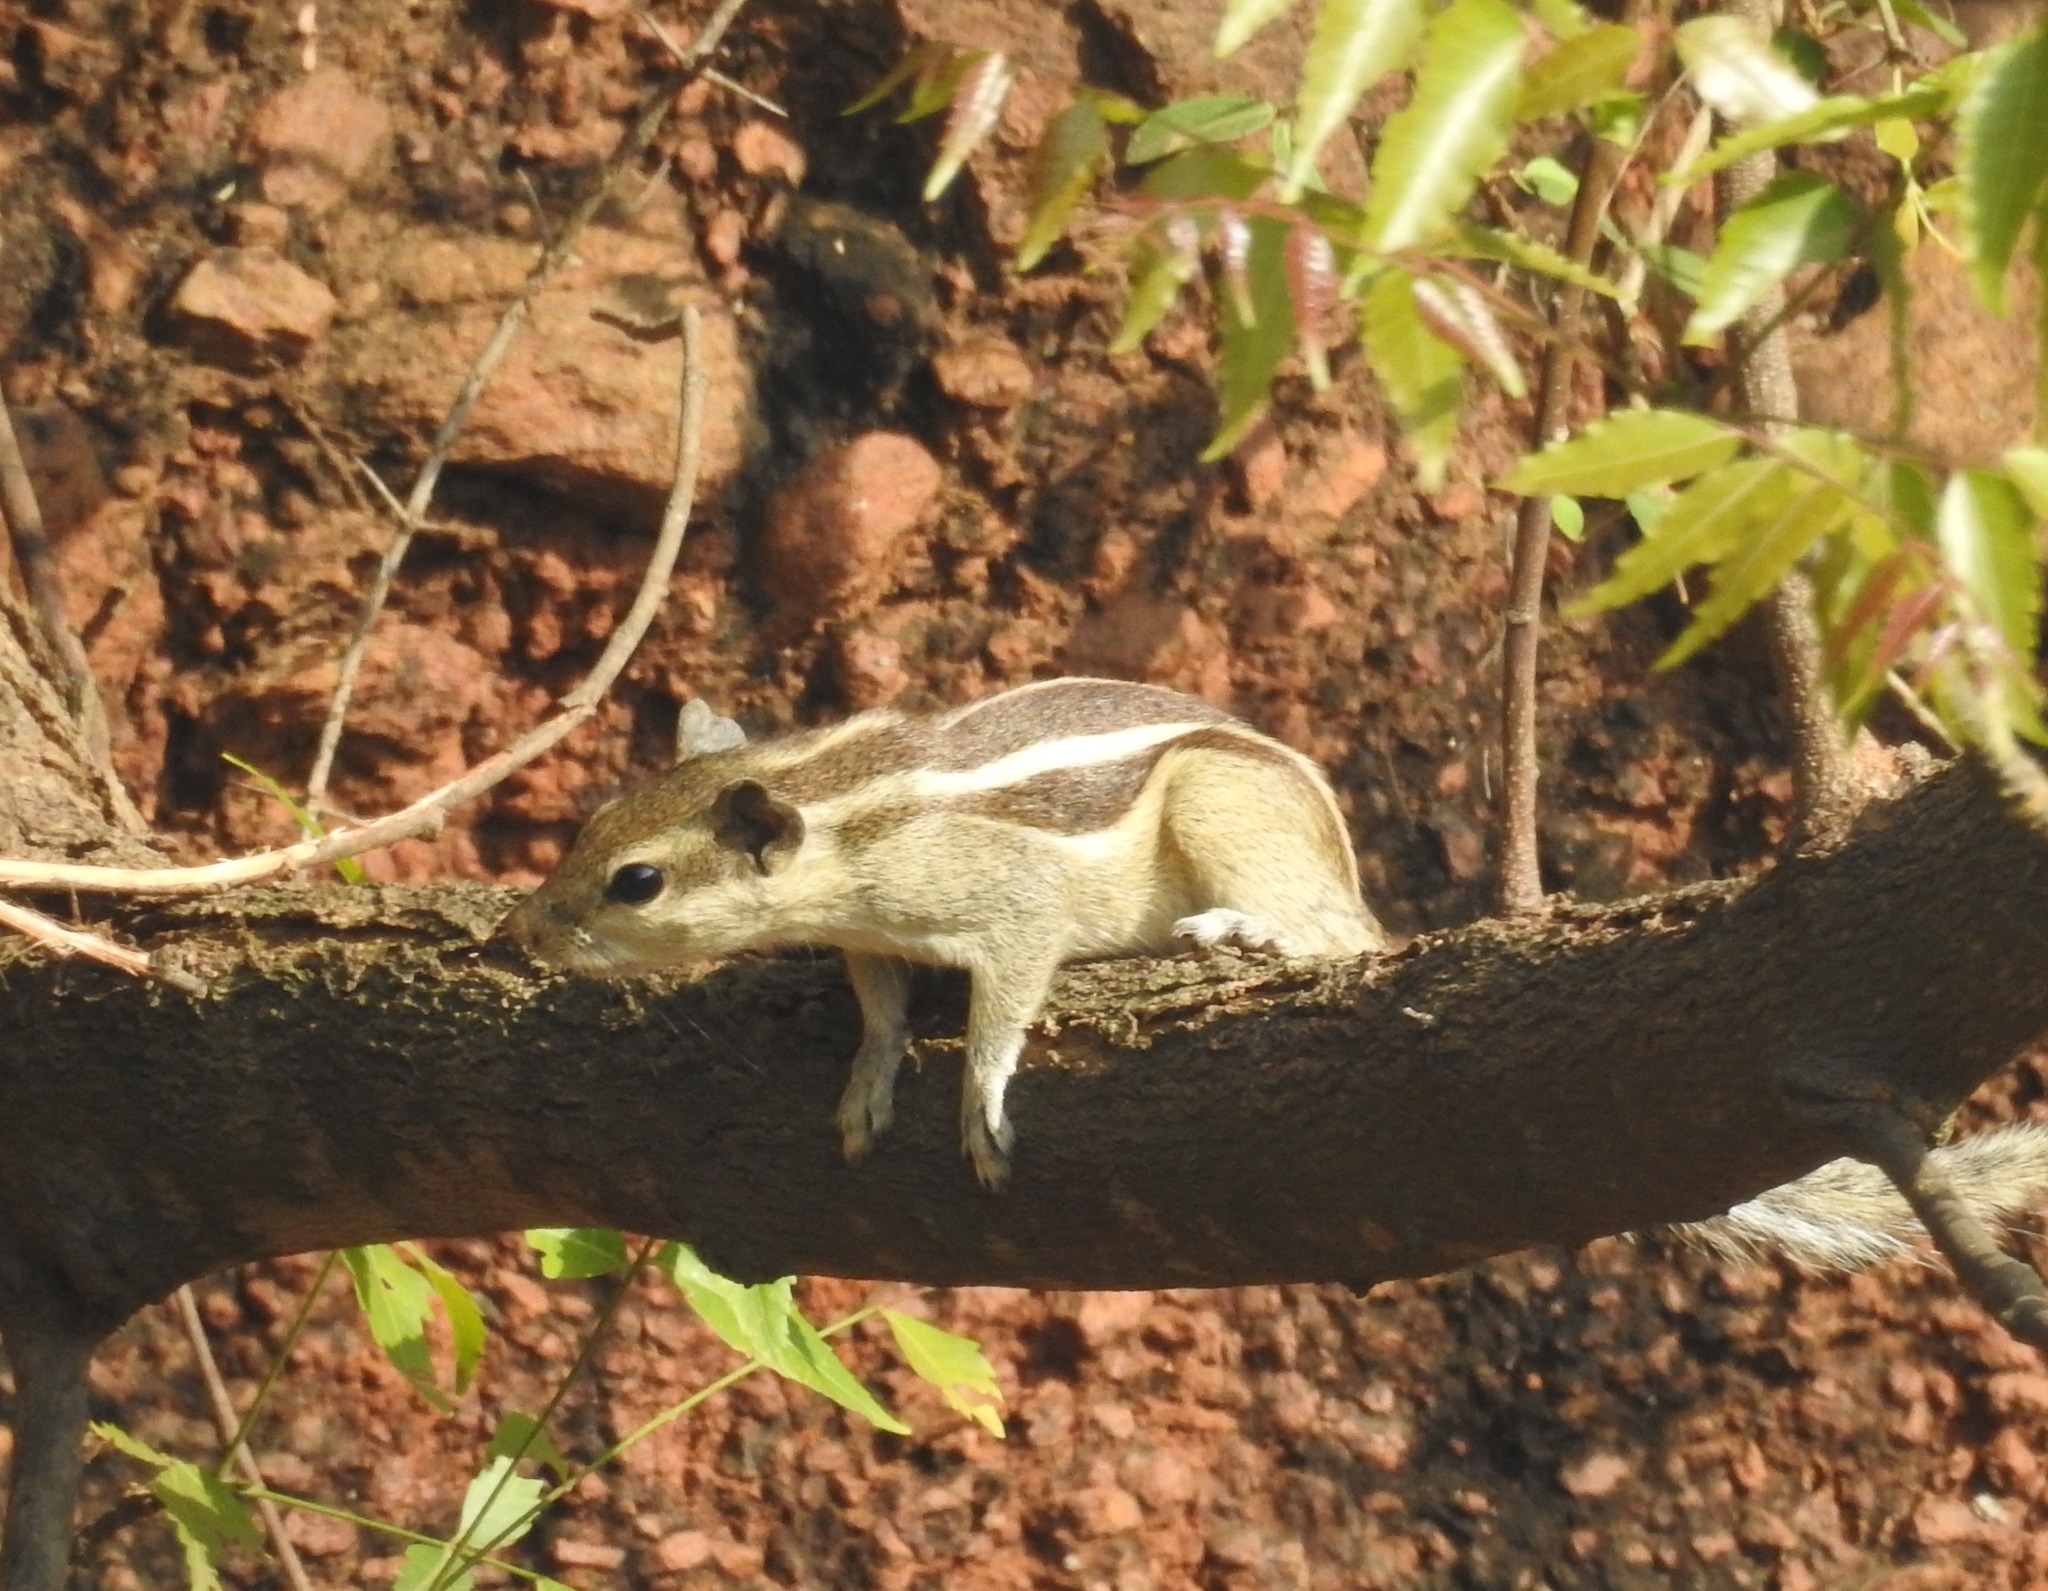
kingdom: Animalia
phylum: Chordata
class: Mammalia
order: Rodentia
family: Sciuridae
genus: Funambulus
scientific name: Funambulus pennantii
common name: Northern palm squirrel
